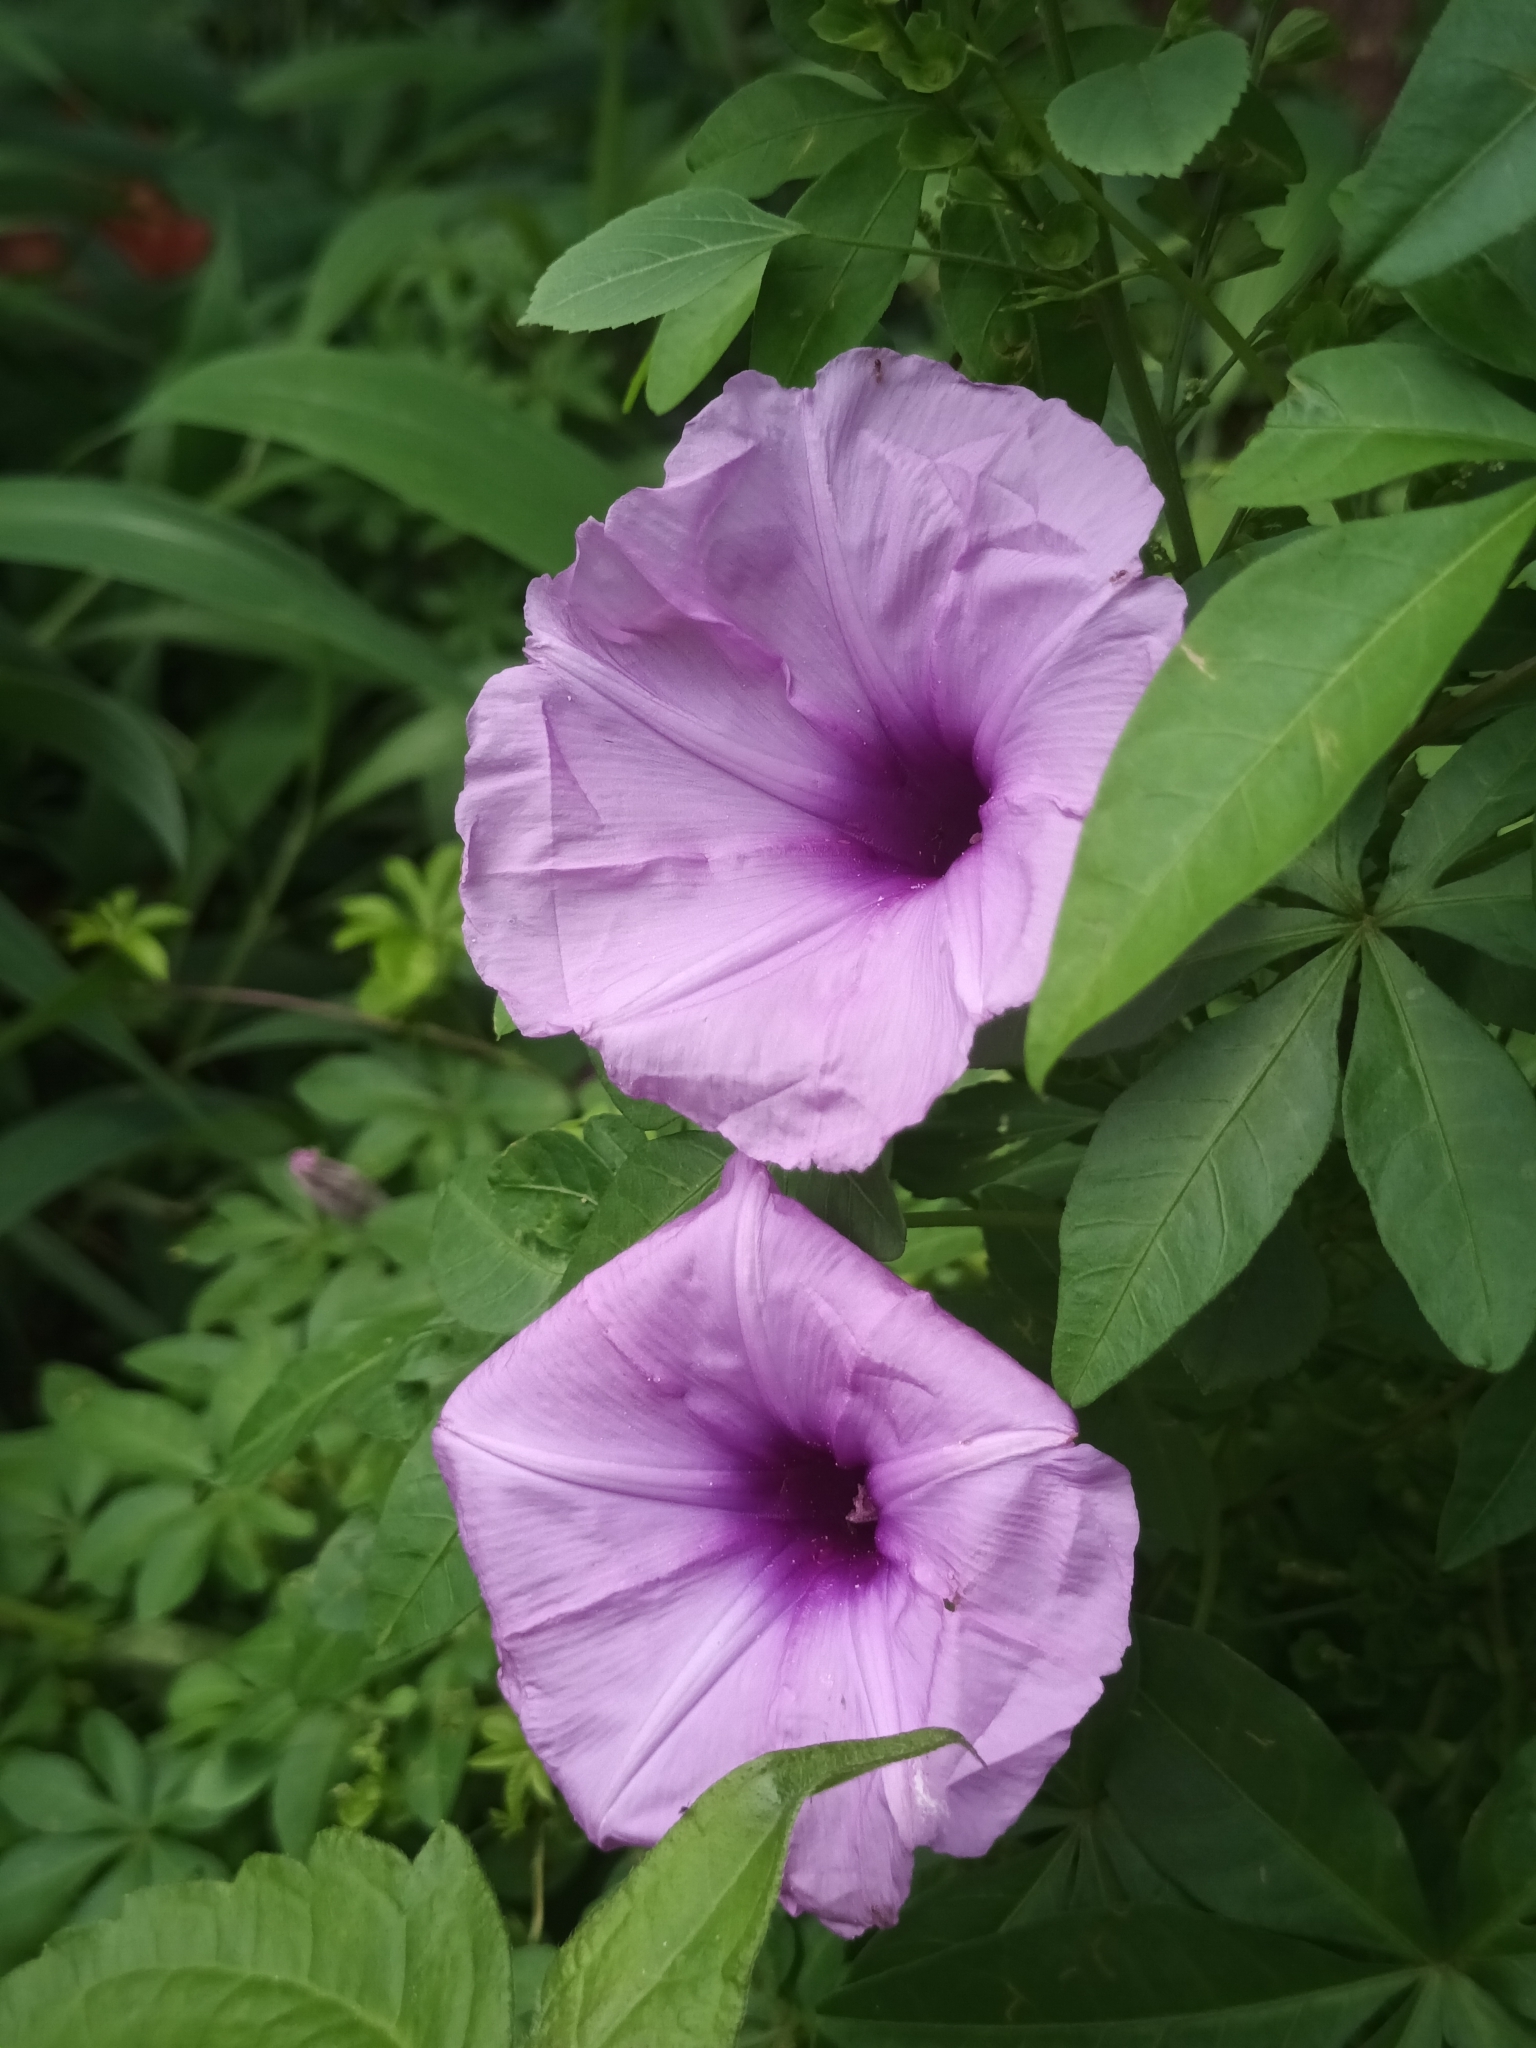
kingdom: Plantae
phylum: Tracheophyta
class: Magnoliopsida
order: Solanales
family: Convolvulaceae
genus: Ipomoea
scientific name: Ipomoea cairica
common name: Mile a minute vine
